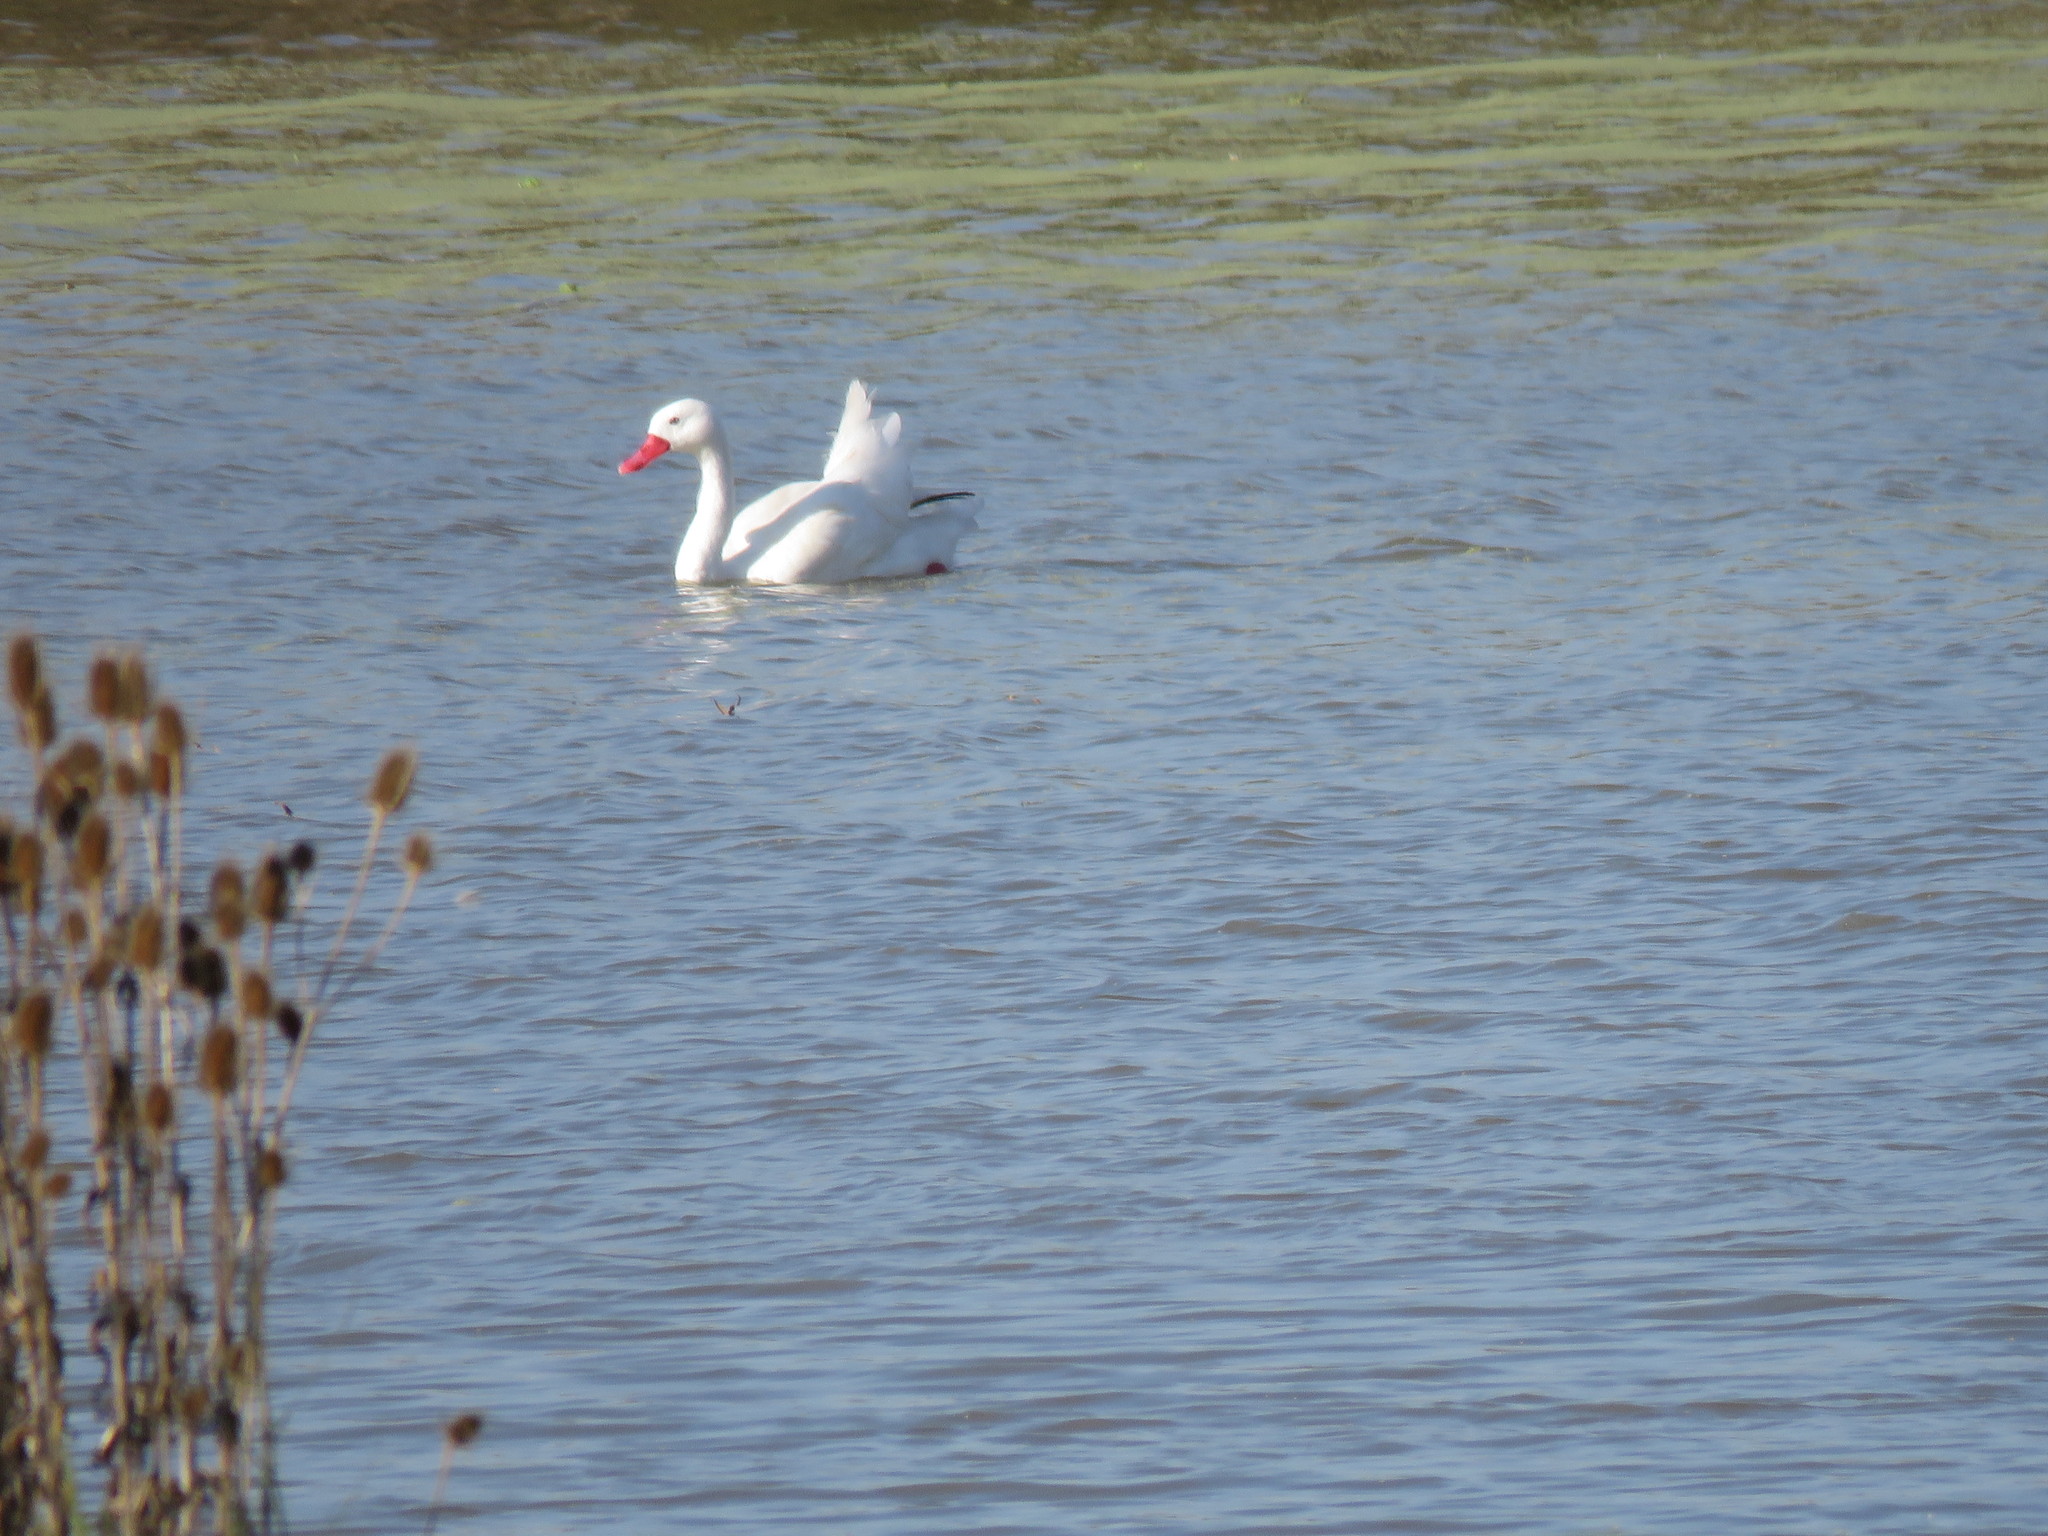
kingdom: Animalia
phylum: Chordata
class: Aves
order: Anseriformes
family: Anatidae
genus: Coscoroba
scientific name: Coscoroba coscoroba
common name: Coscoroba swan
